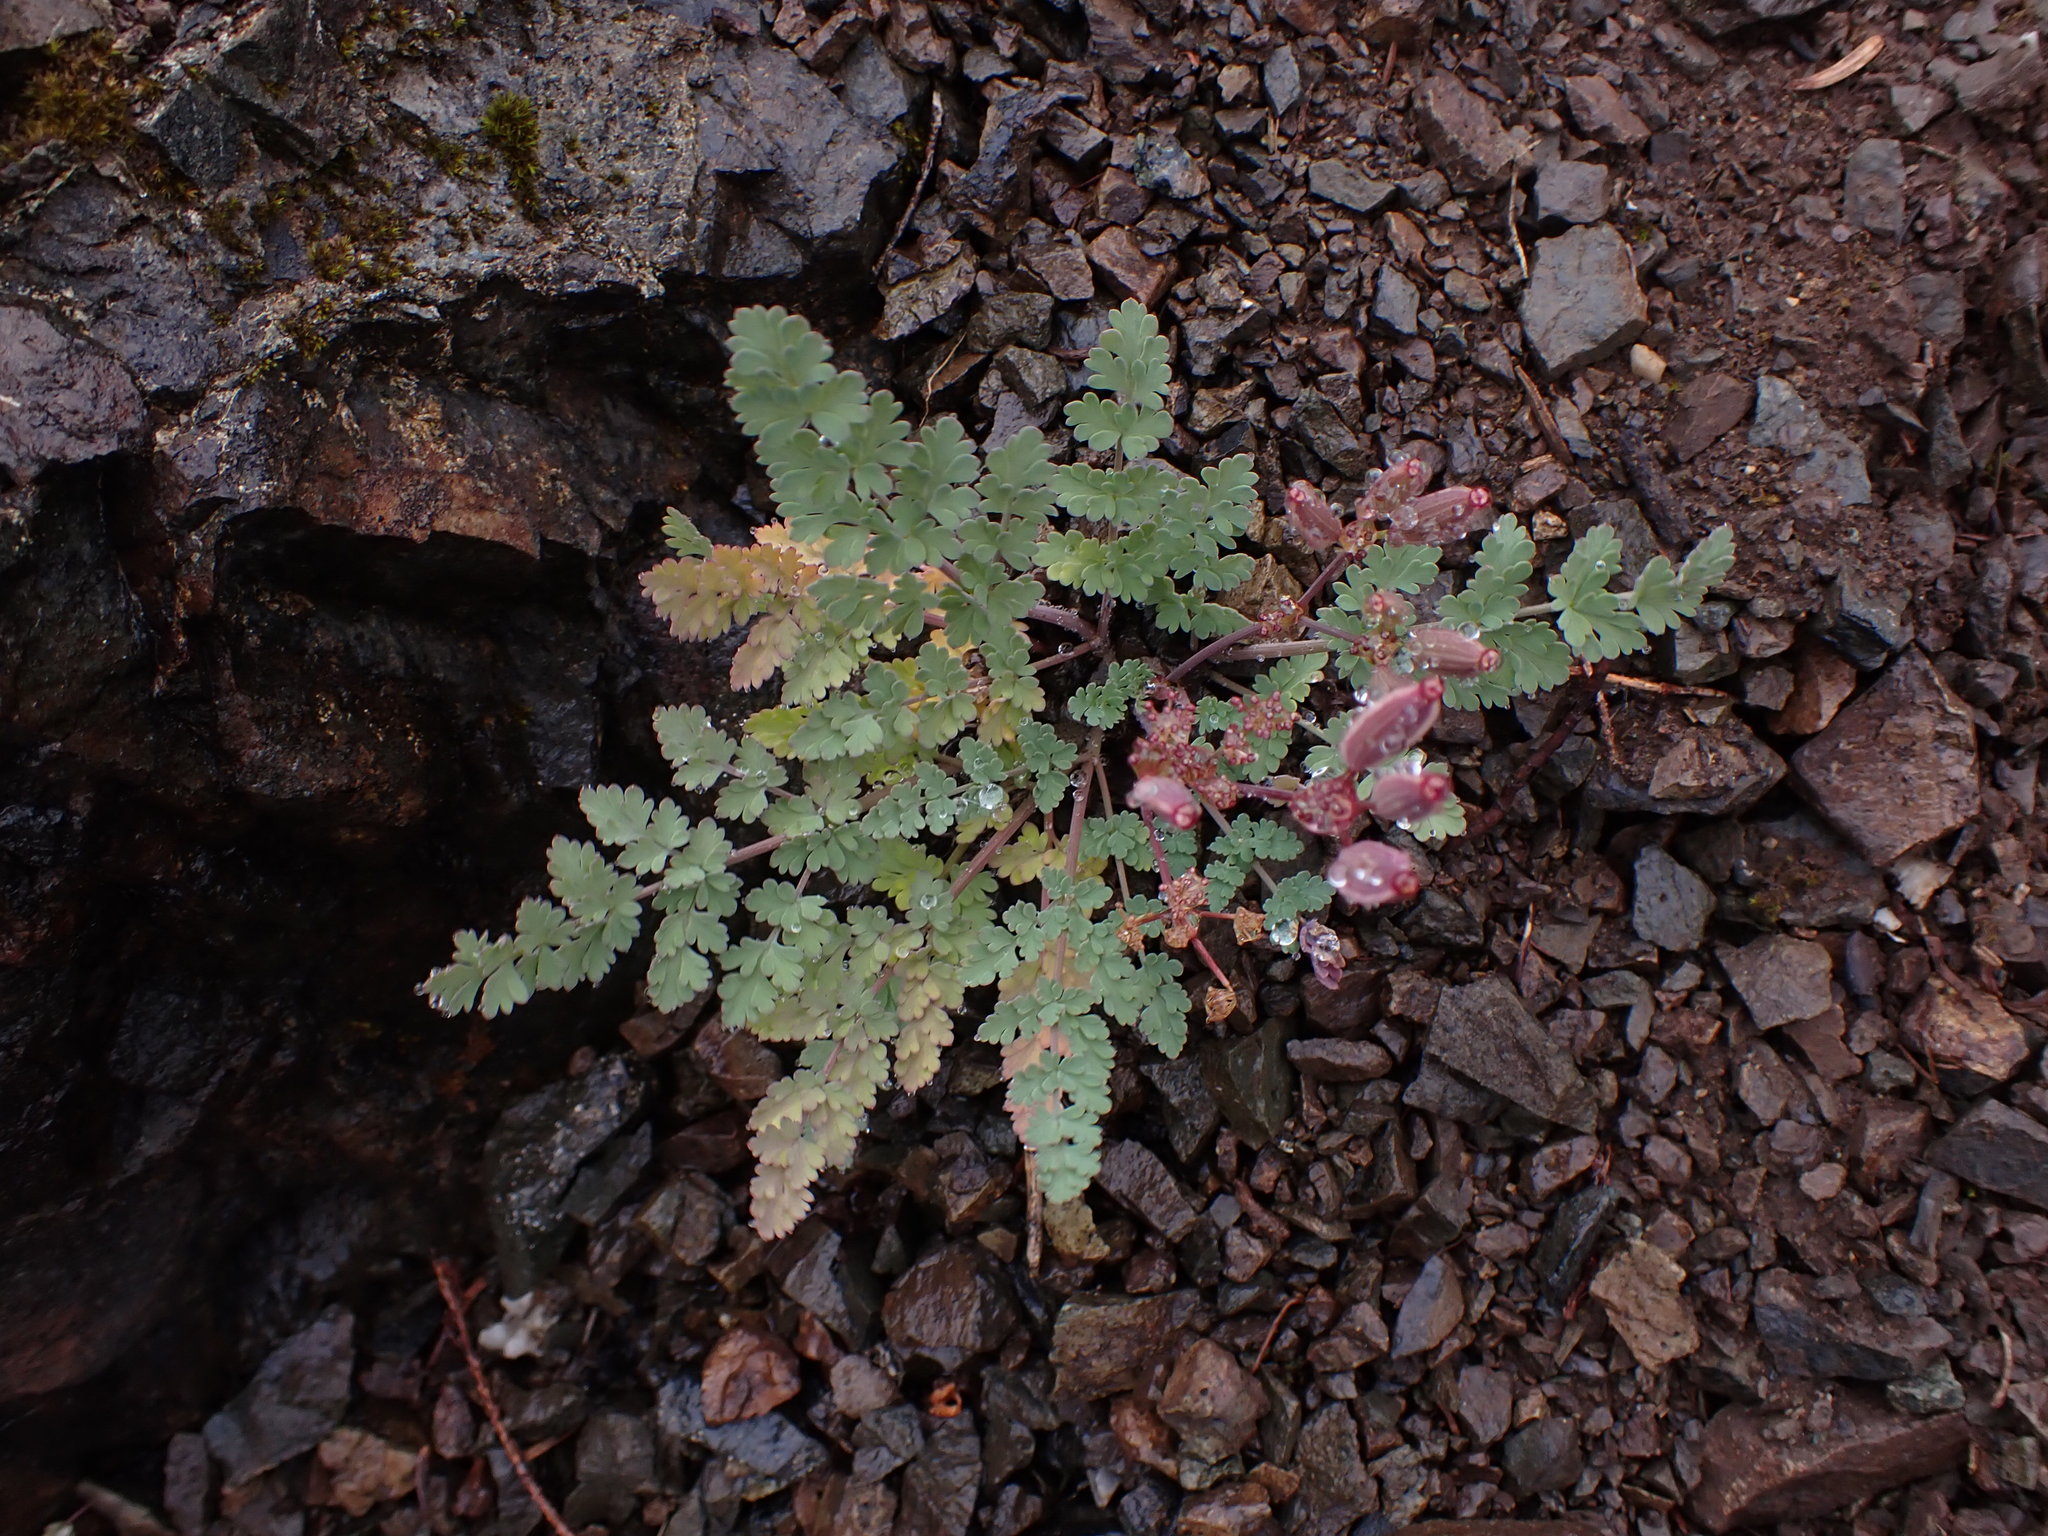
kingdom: Plantae
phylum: Tracheophyta
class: Magnoliopsida
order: Apiales
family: Apiaceae
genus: Lomatium
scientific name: Lomatium martindalei
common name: Cascade desert-parsley
